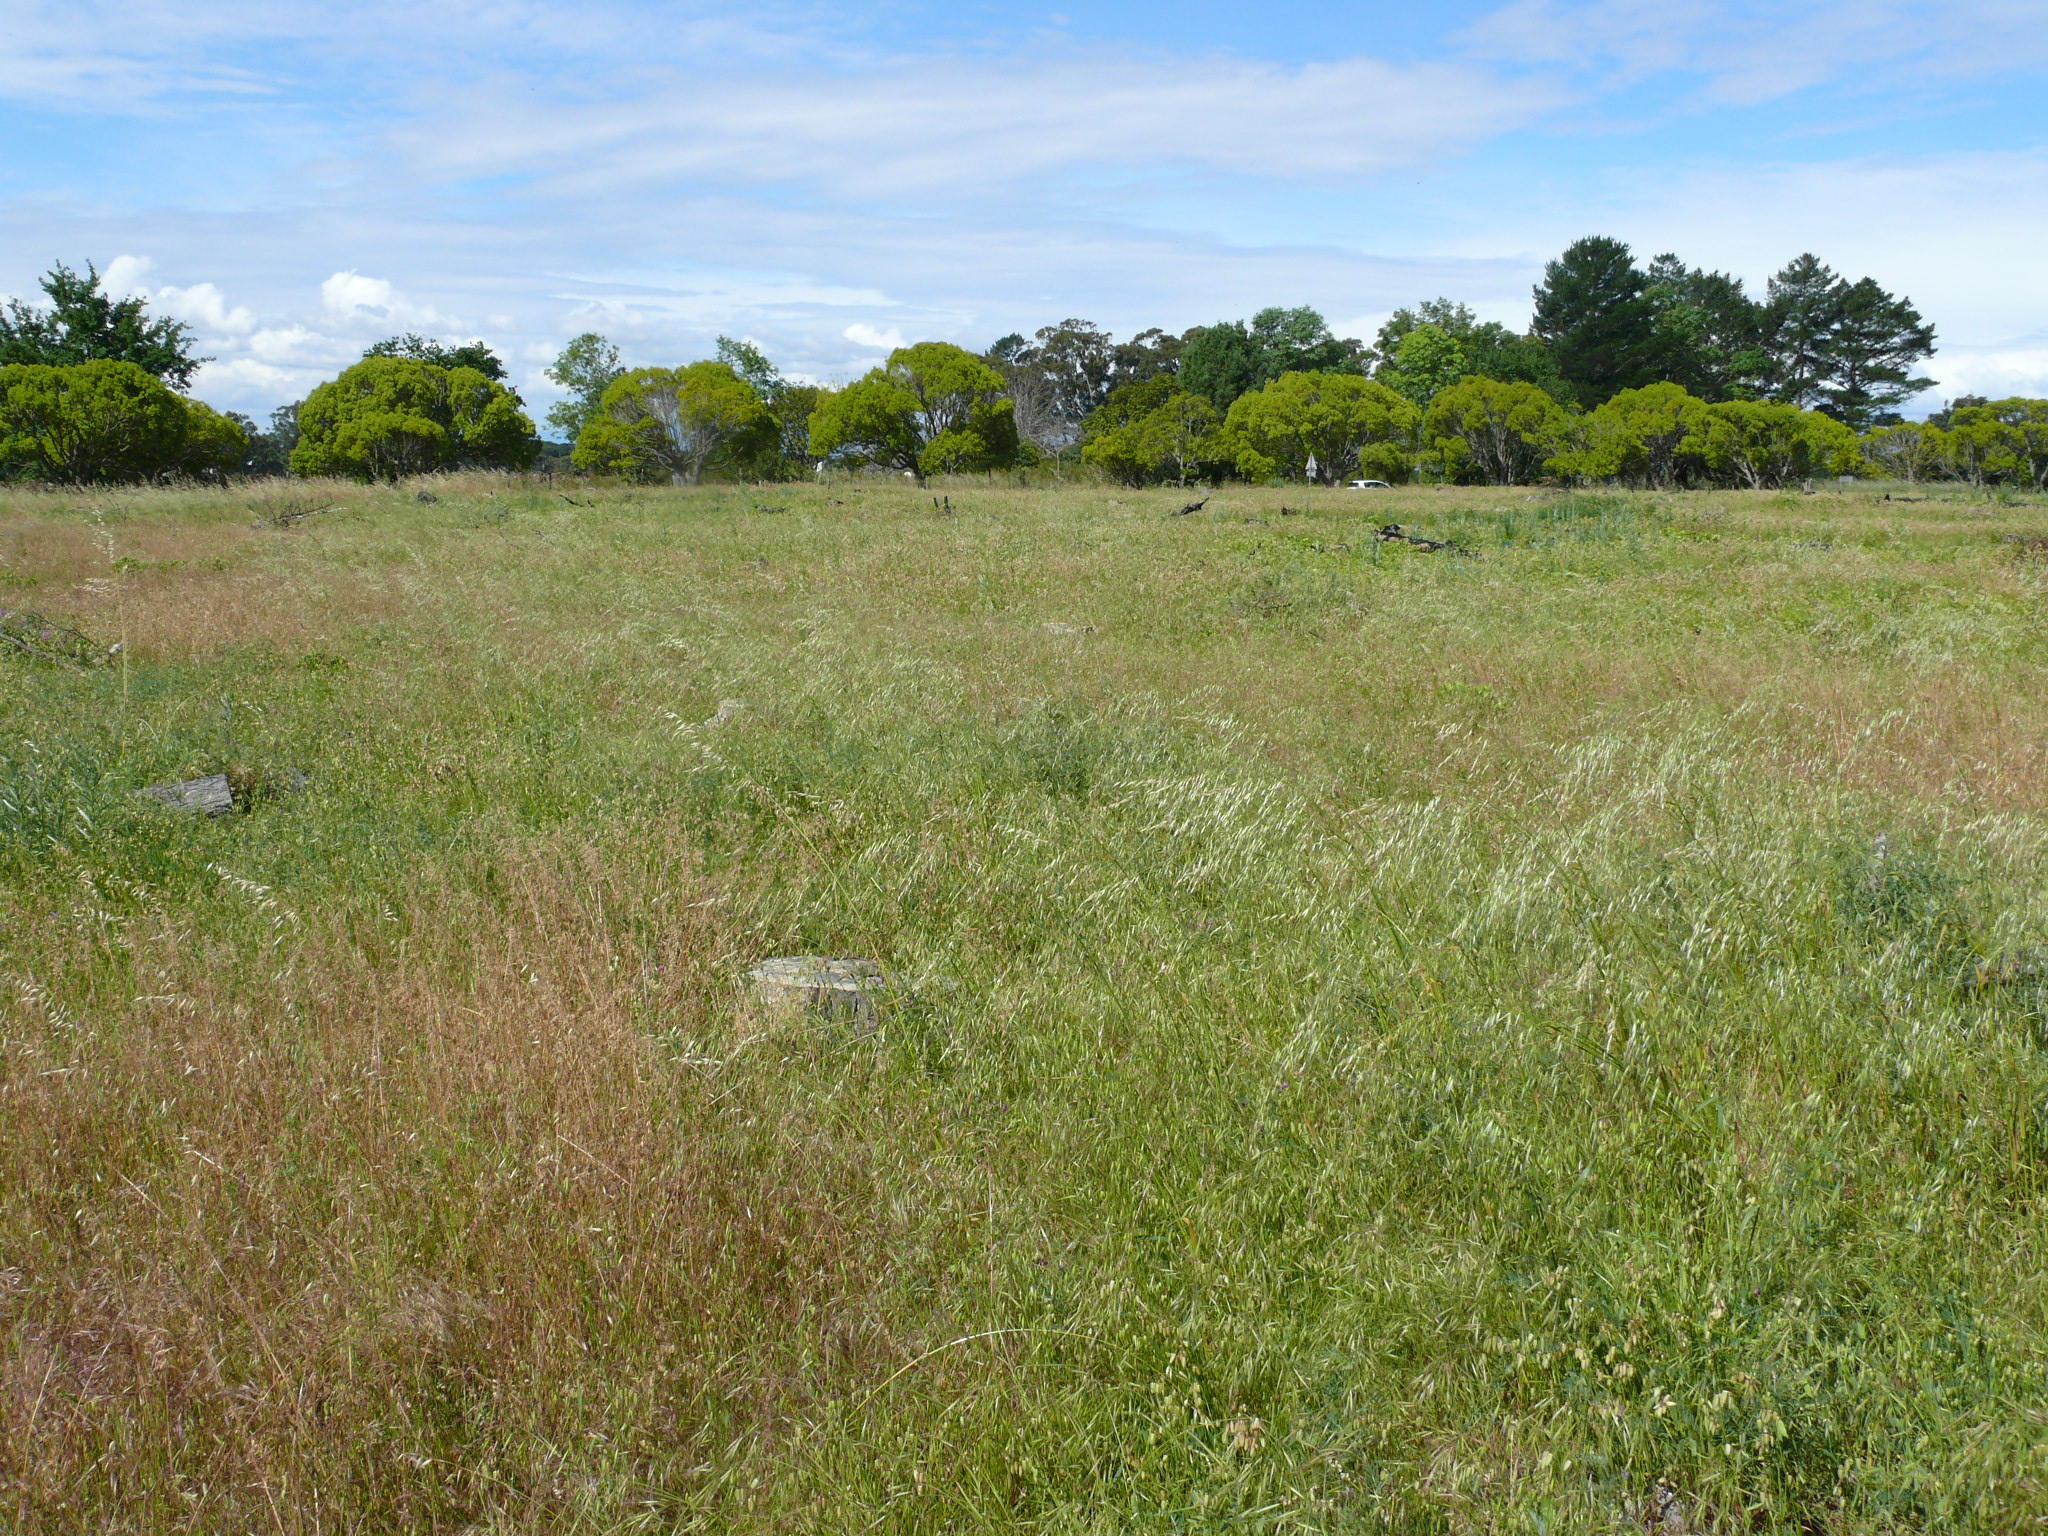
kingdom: Plantae
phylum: Tracheophyta
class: Liliopsida
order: Poales
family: Poaceae
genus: Avena
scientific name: Avena fatua
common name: Wild oat
